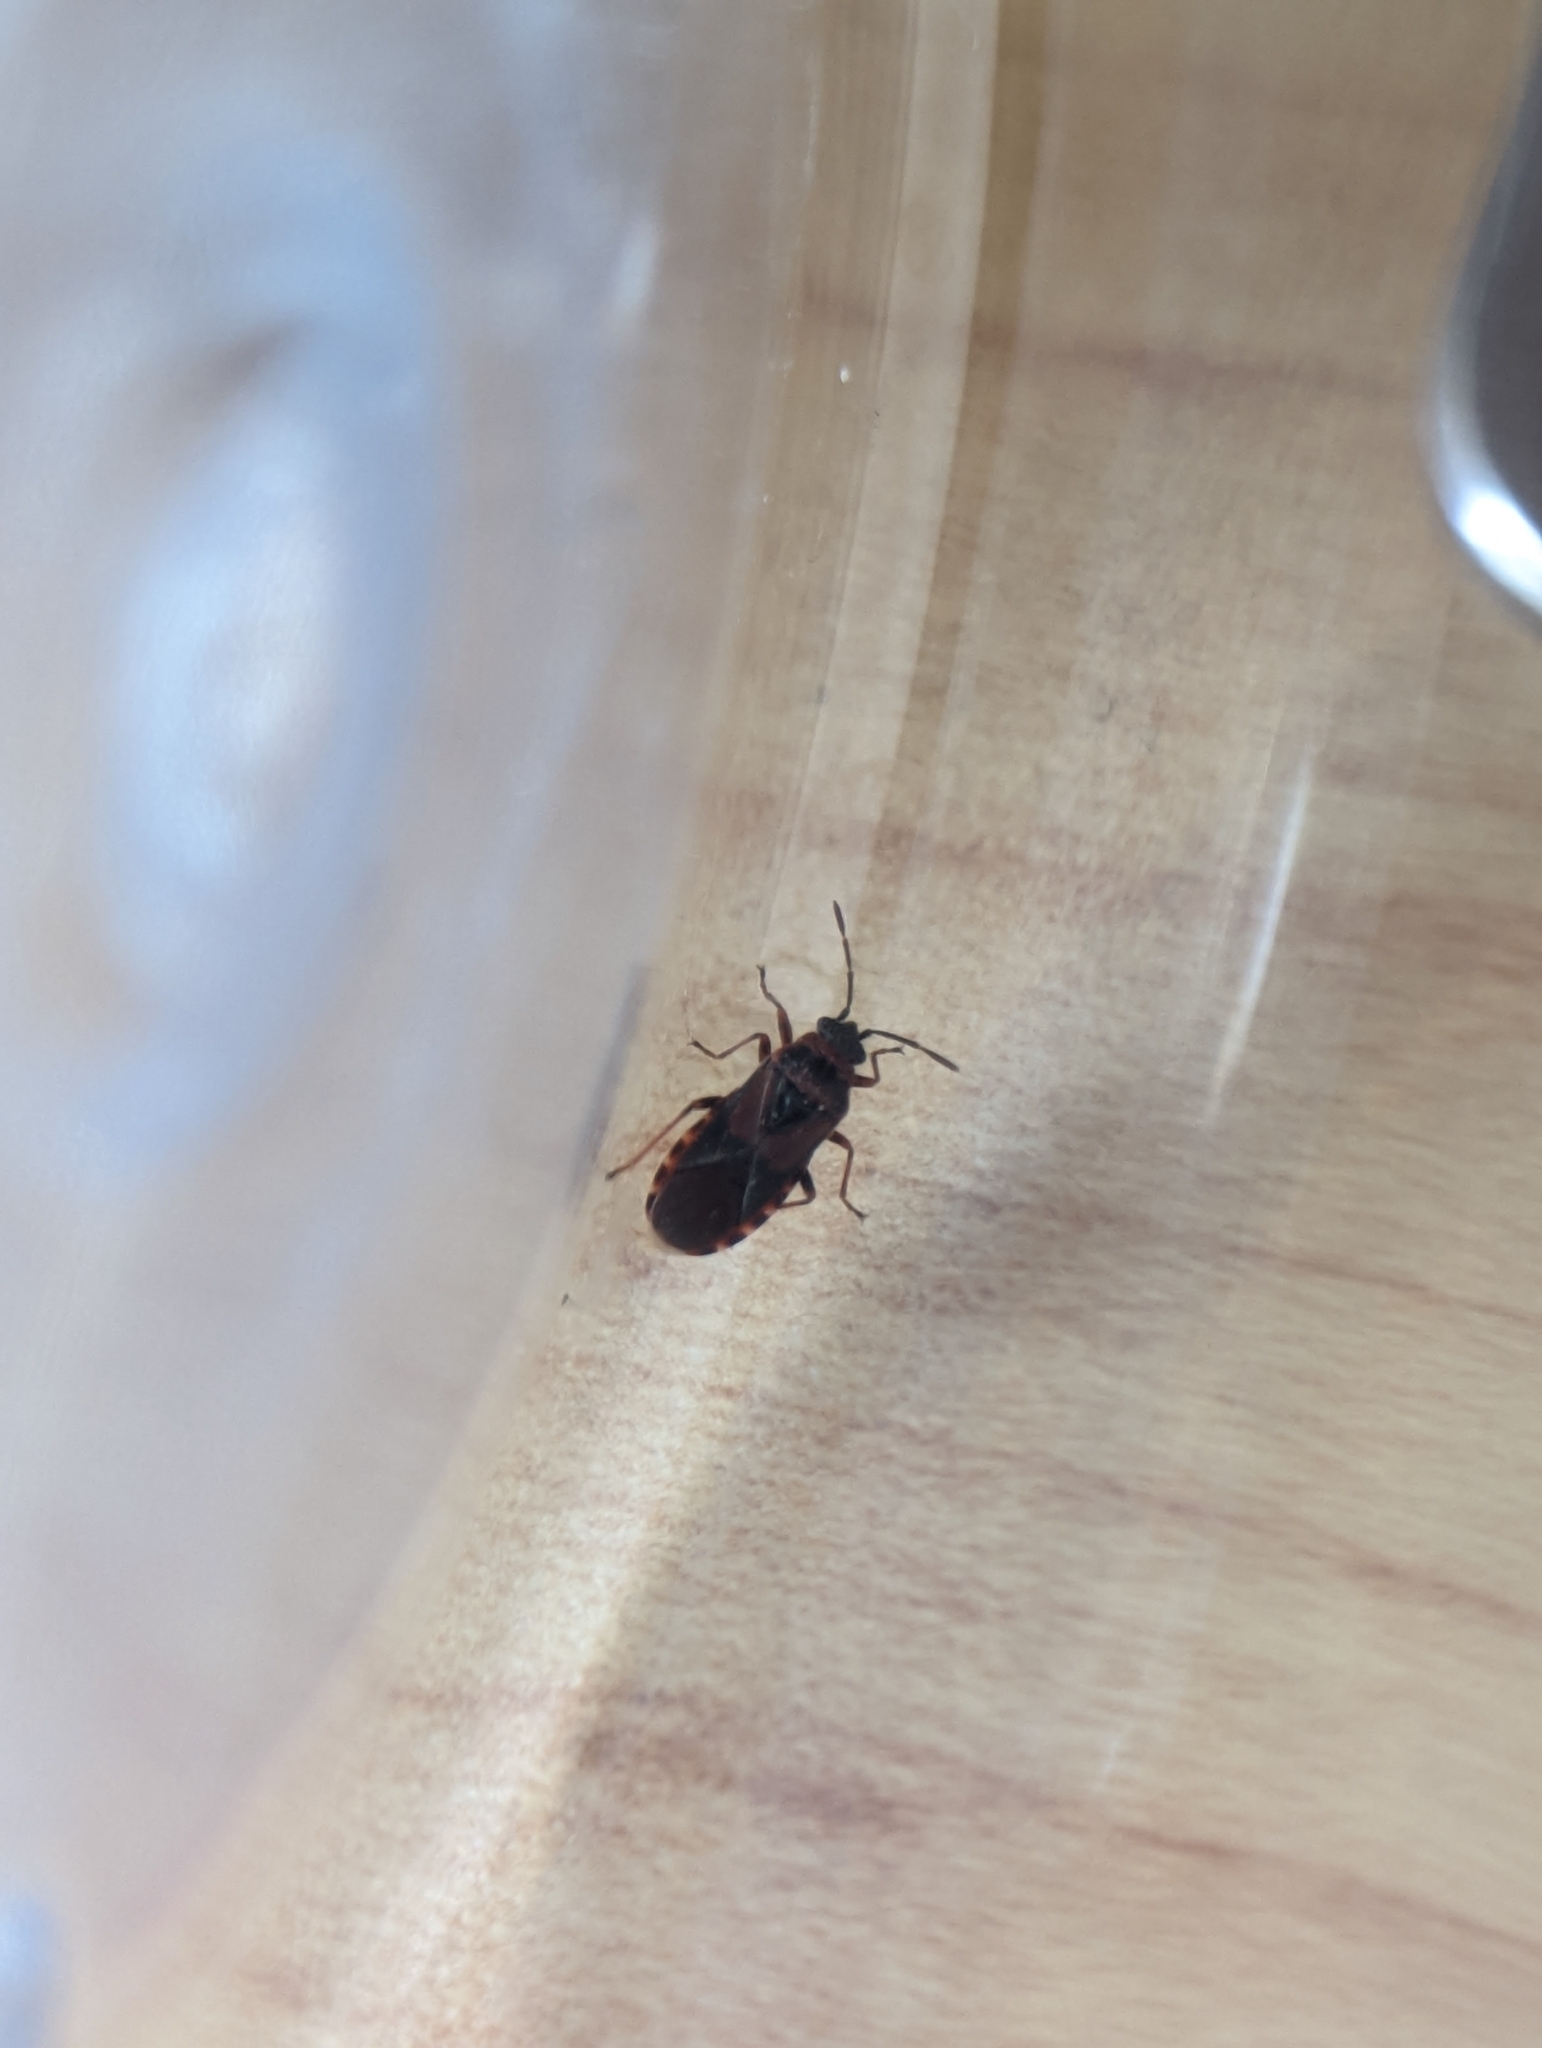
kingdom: Animalia
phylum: Arthropoda
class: Insecta
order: Hemiptera
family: Lygaeidae
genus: Arocatus
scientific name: Arocatus melanocephalus
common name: Lygaeid bug
